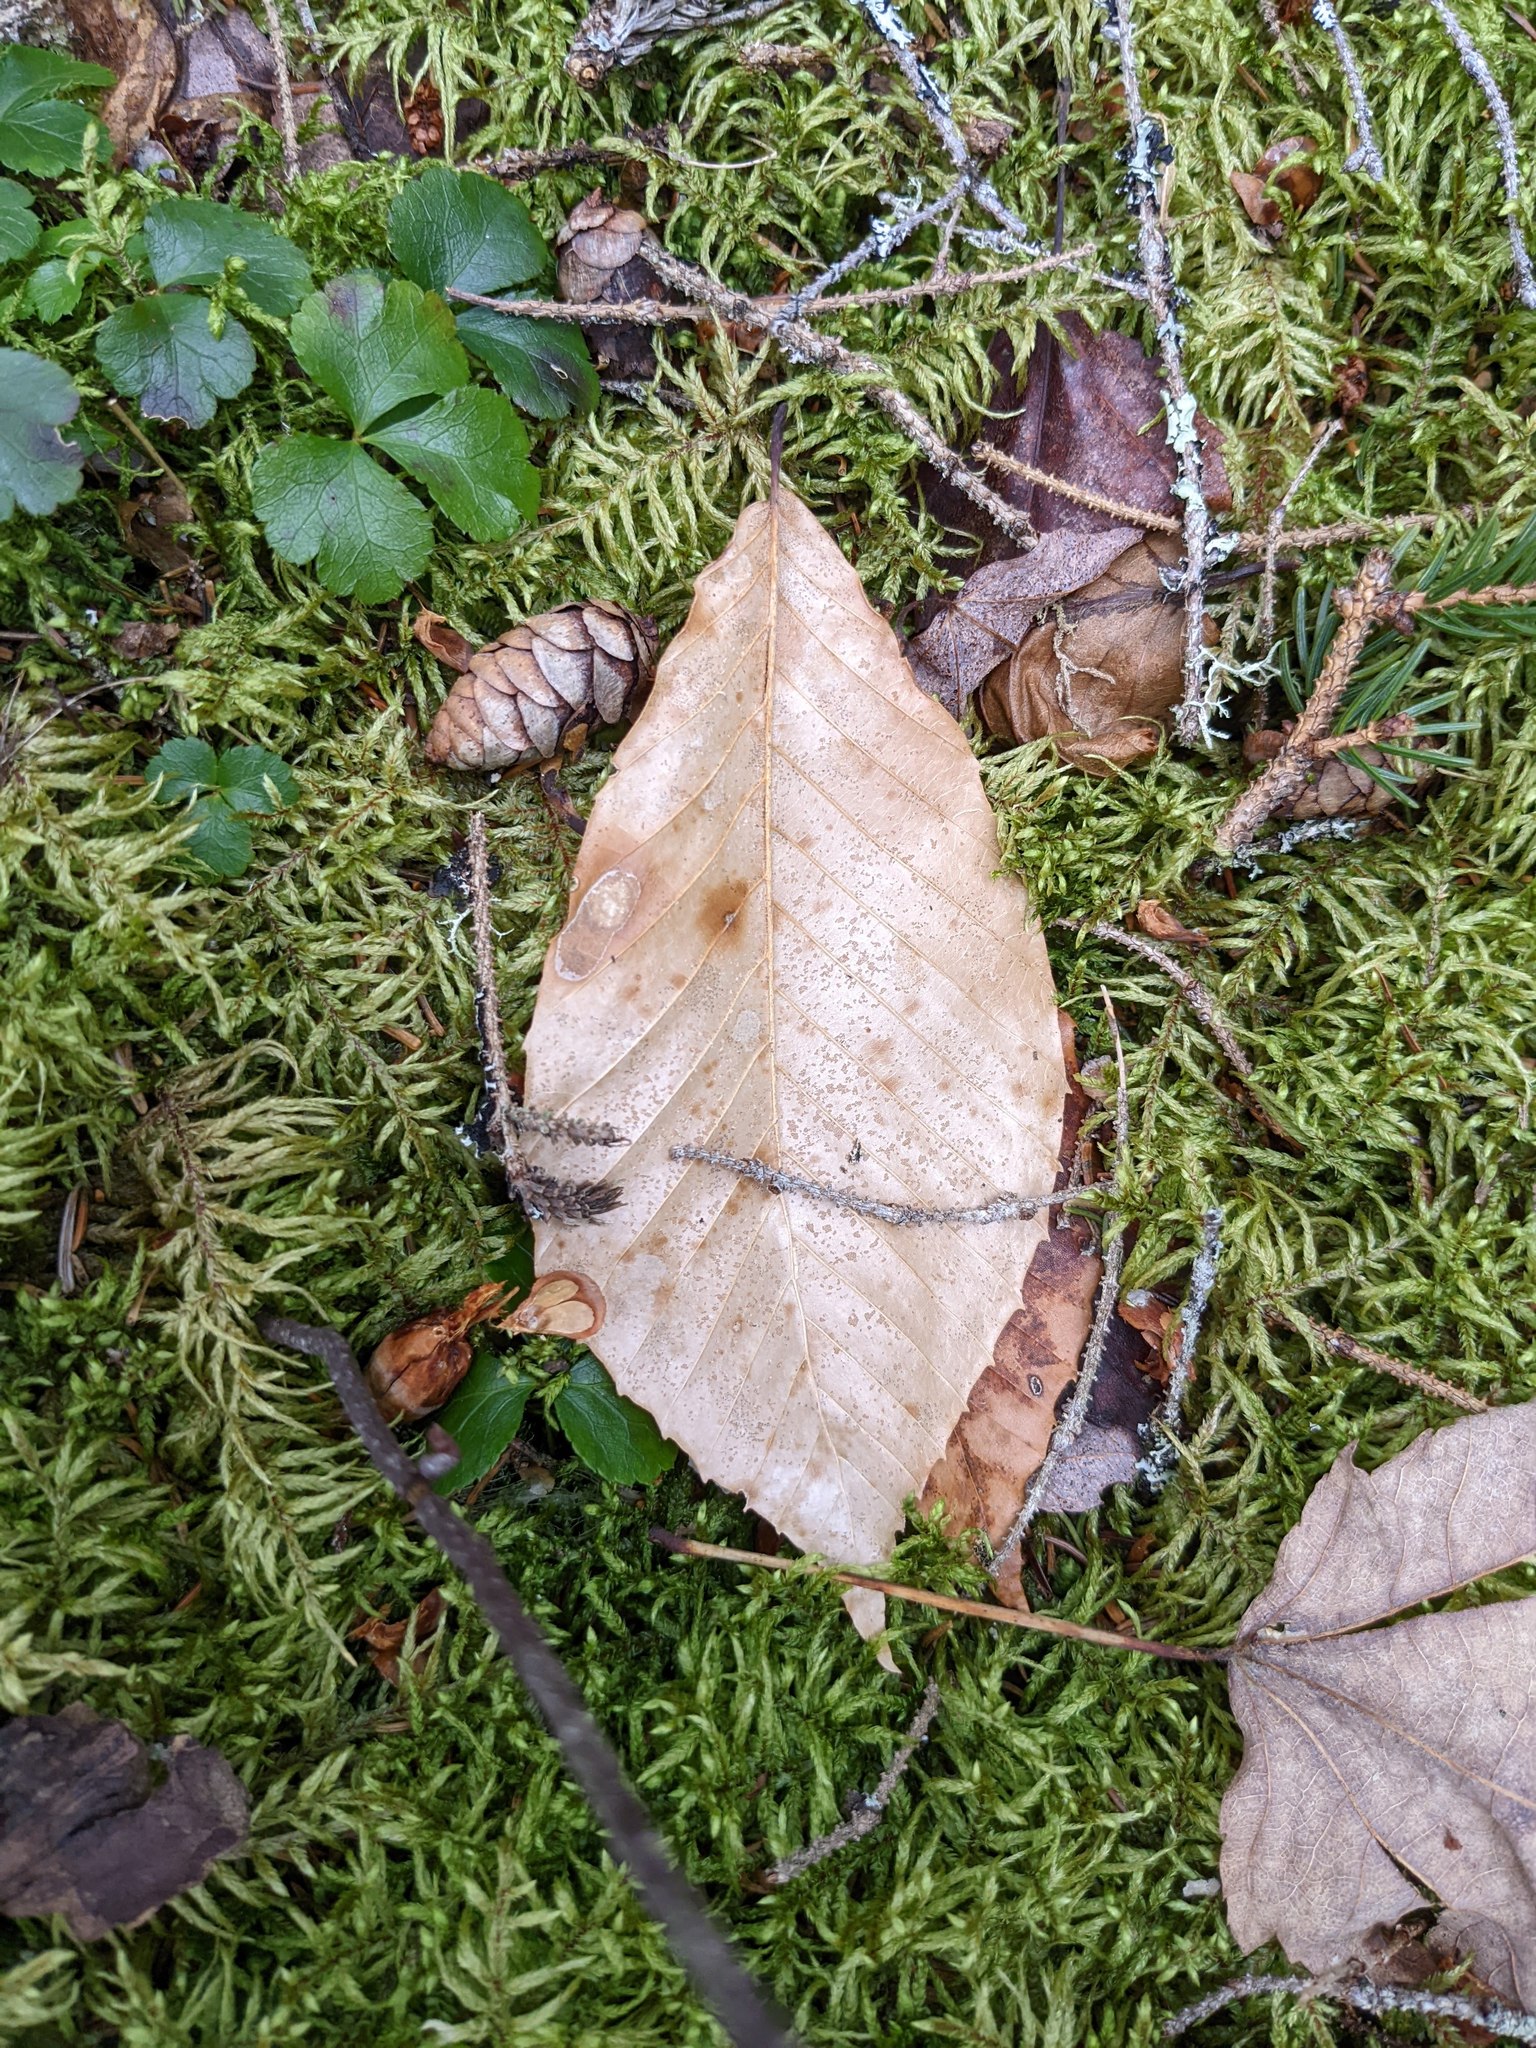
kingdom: Plantae
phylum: Tracheophyta
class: Magnoliopsida
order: Fagales
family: Fagaceae
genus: Fagus
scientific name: Fagus grandifolia
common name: American beech
